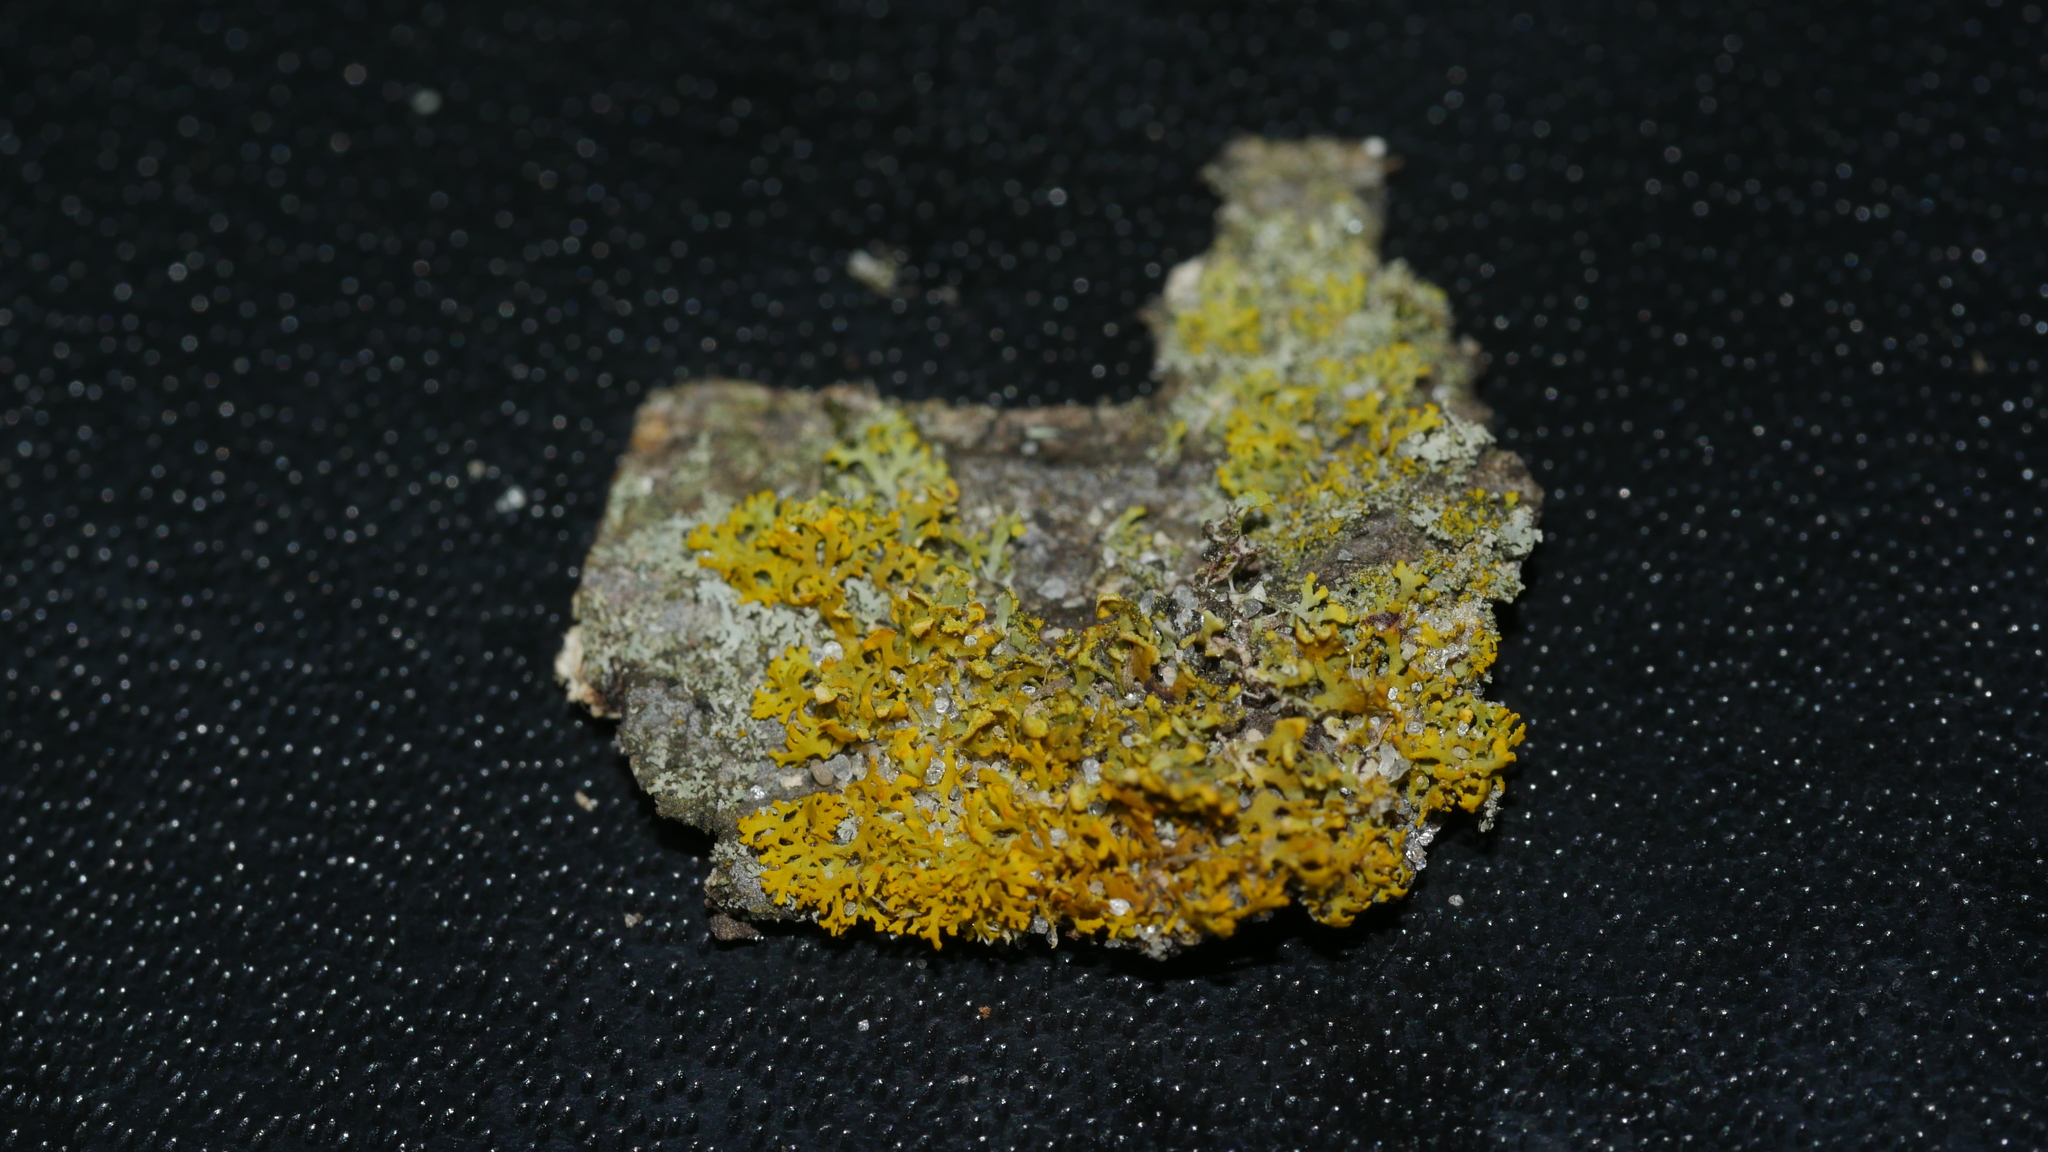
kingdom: Fungi
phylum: Ascomycota
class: Candelariomycetes
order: Candelariales
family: Candelariaceae
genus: Candelaria
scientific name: Candelaria concolor
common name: Candleflame lichen
